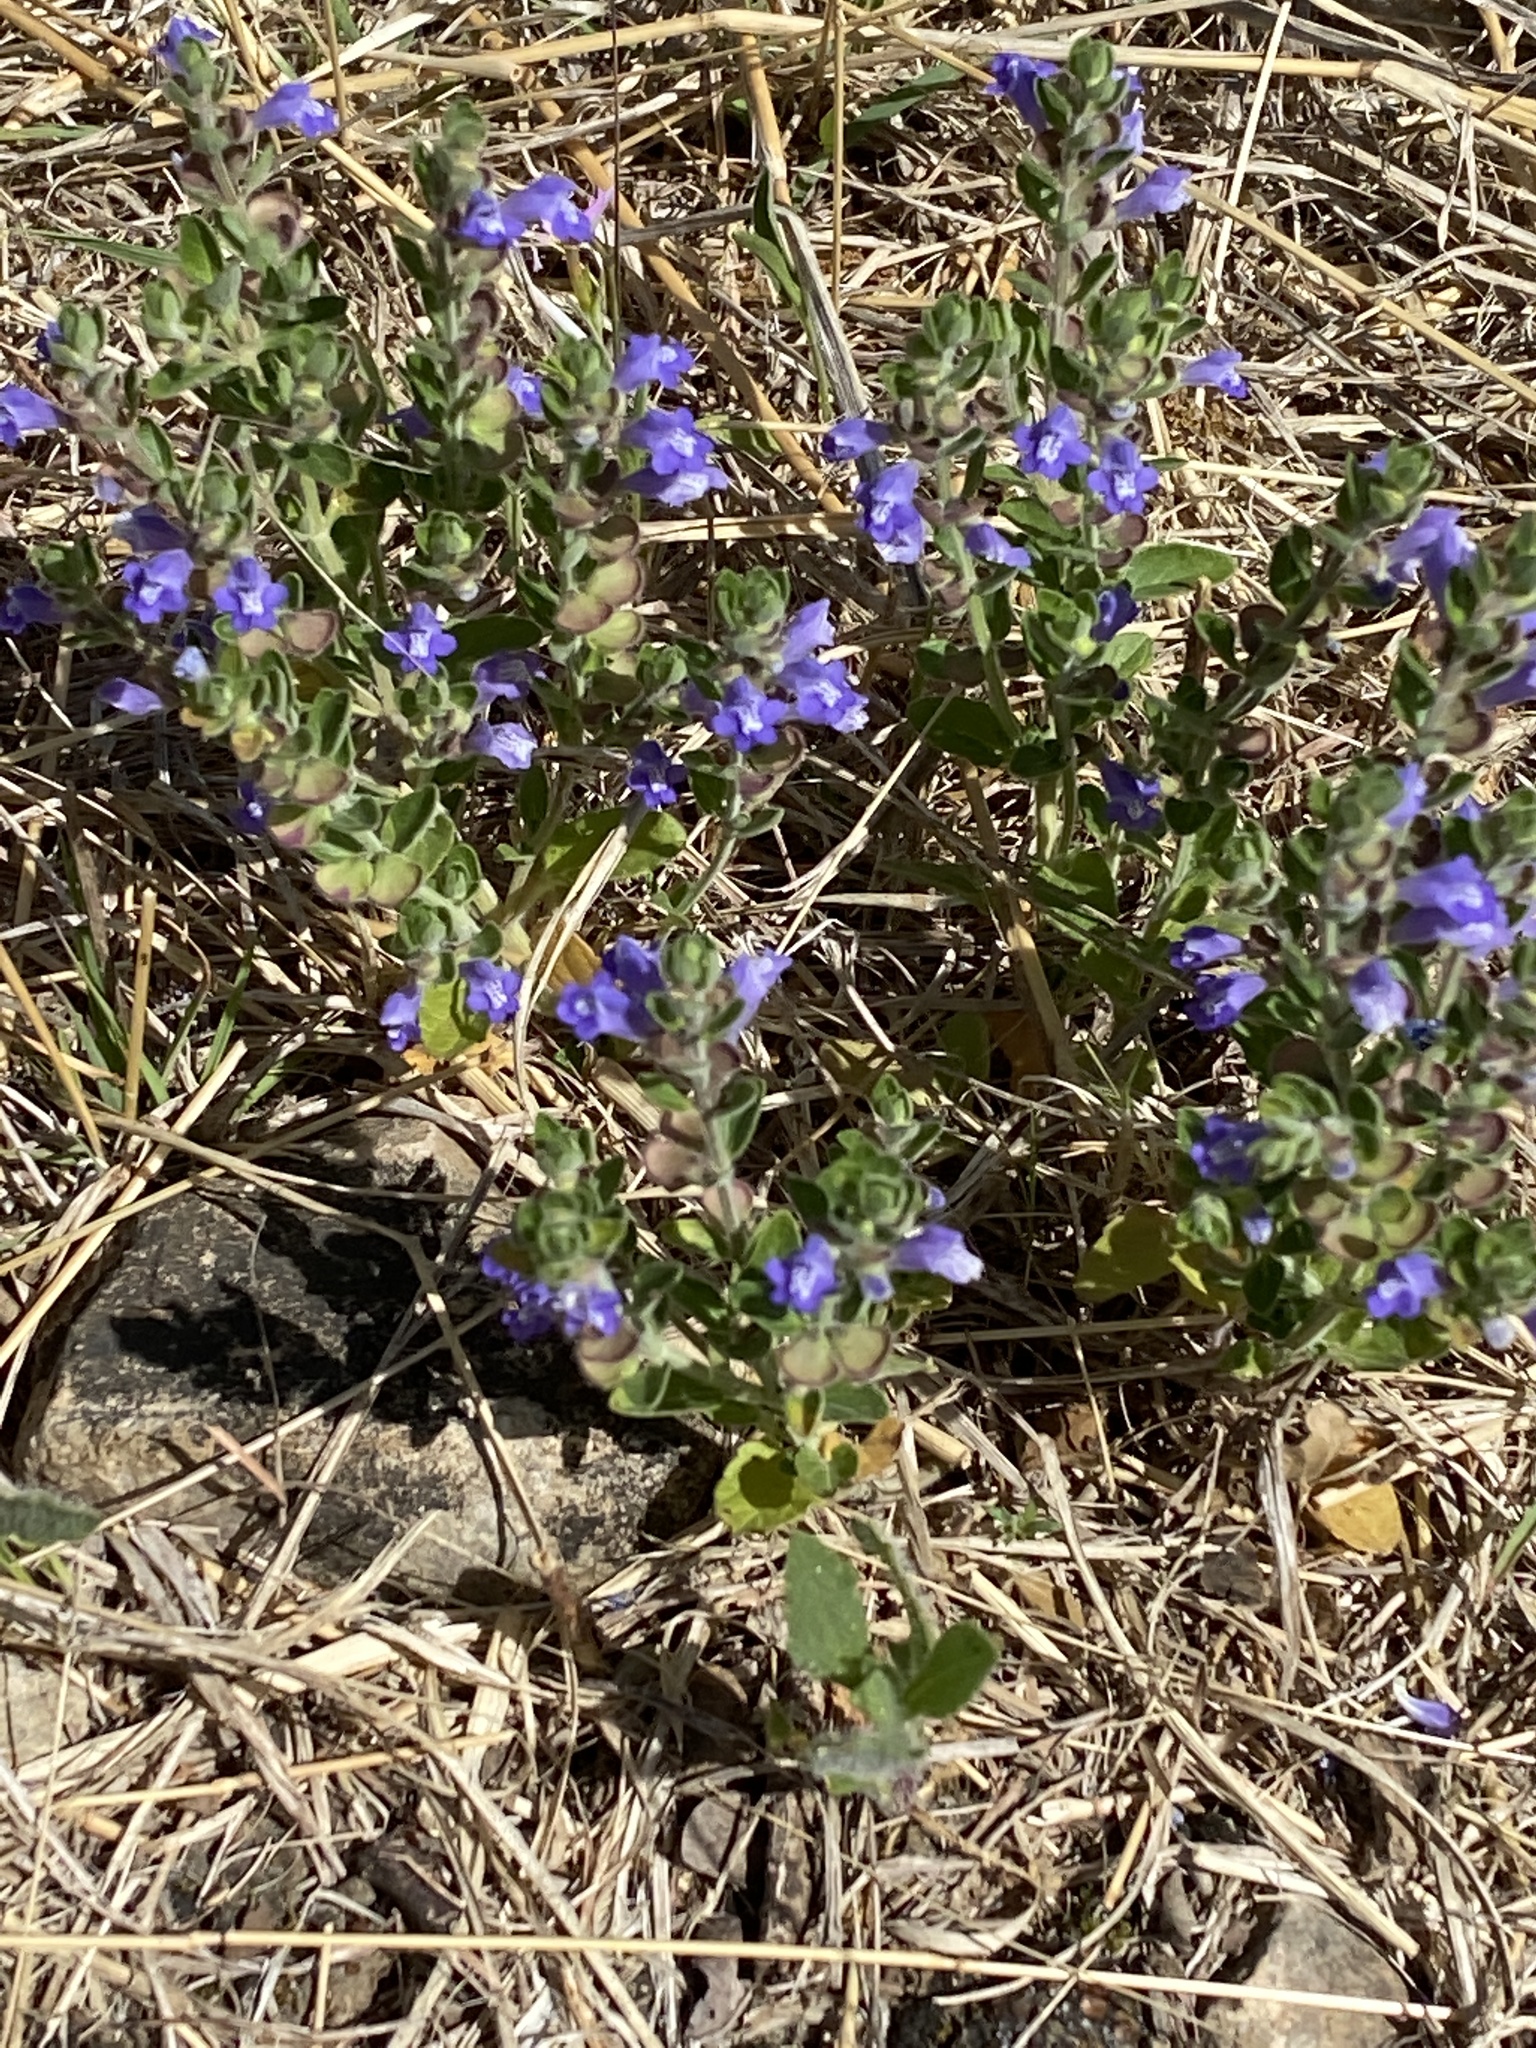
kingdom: Plantae
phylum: Tracheophyta
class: Magnoliopsida
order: Lamiales
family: Lamiaceae
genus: Scutellaria
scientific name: Scutellaria drummondii
